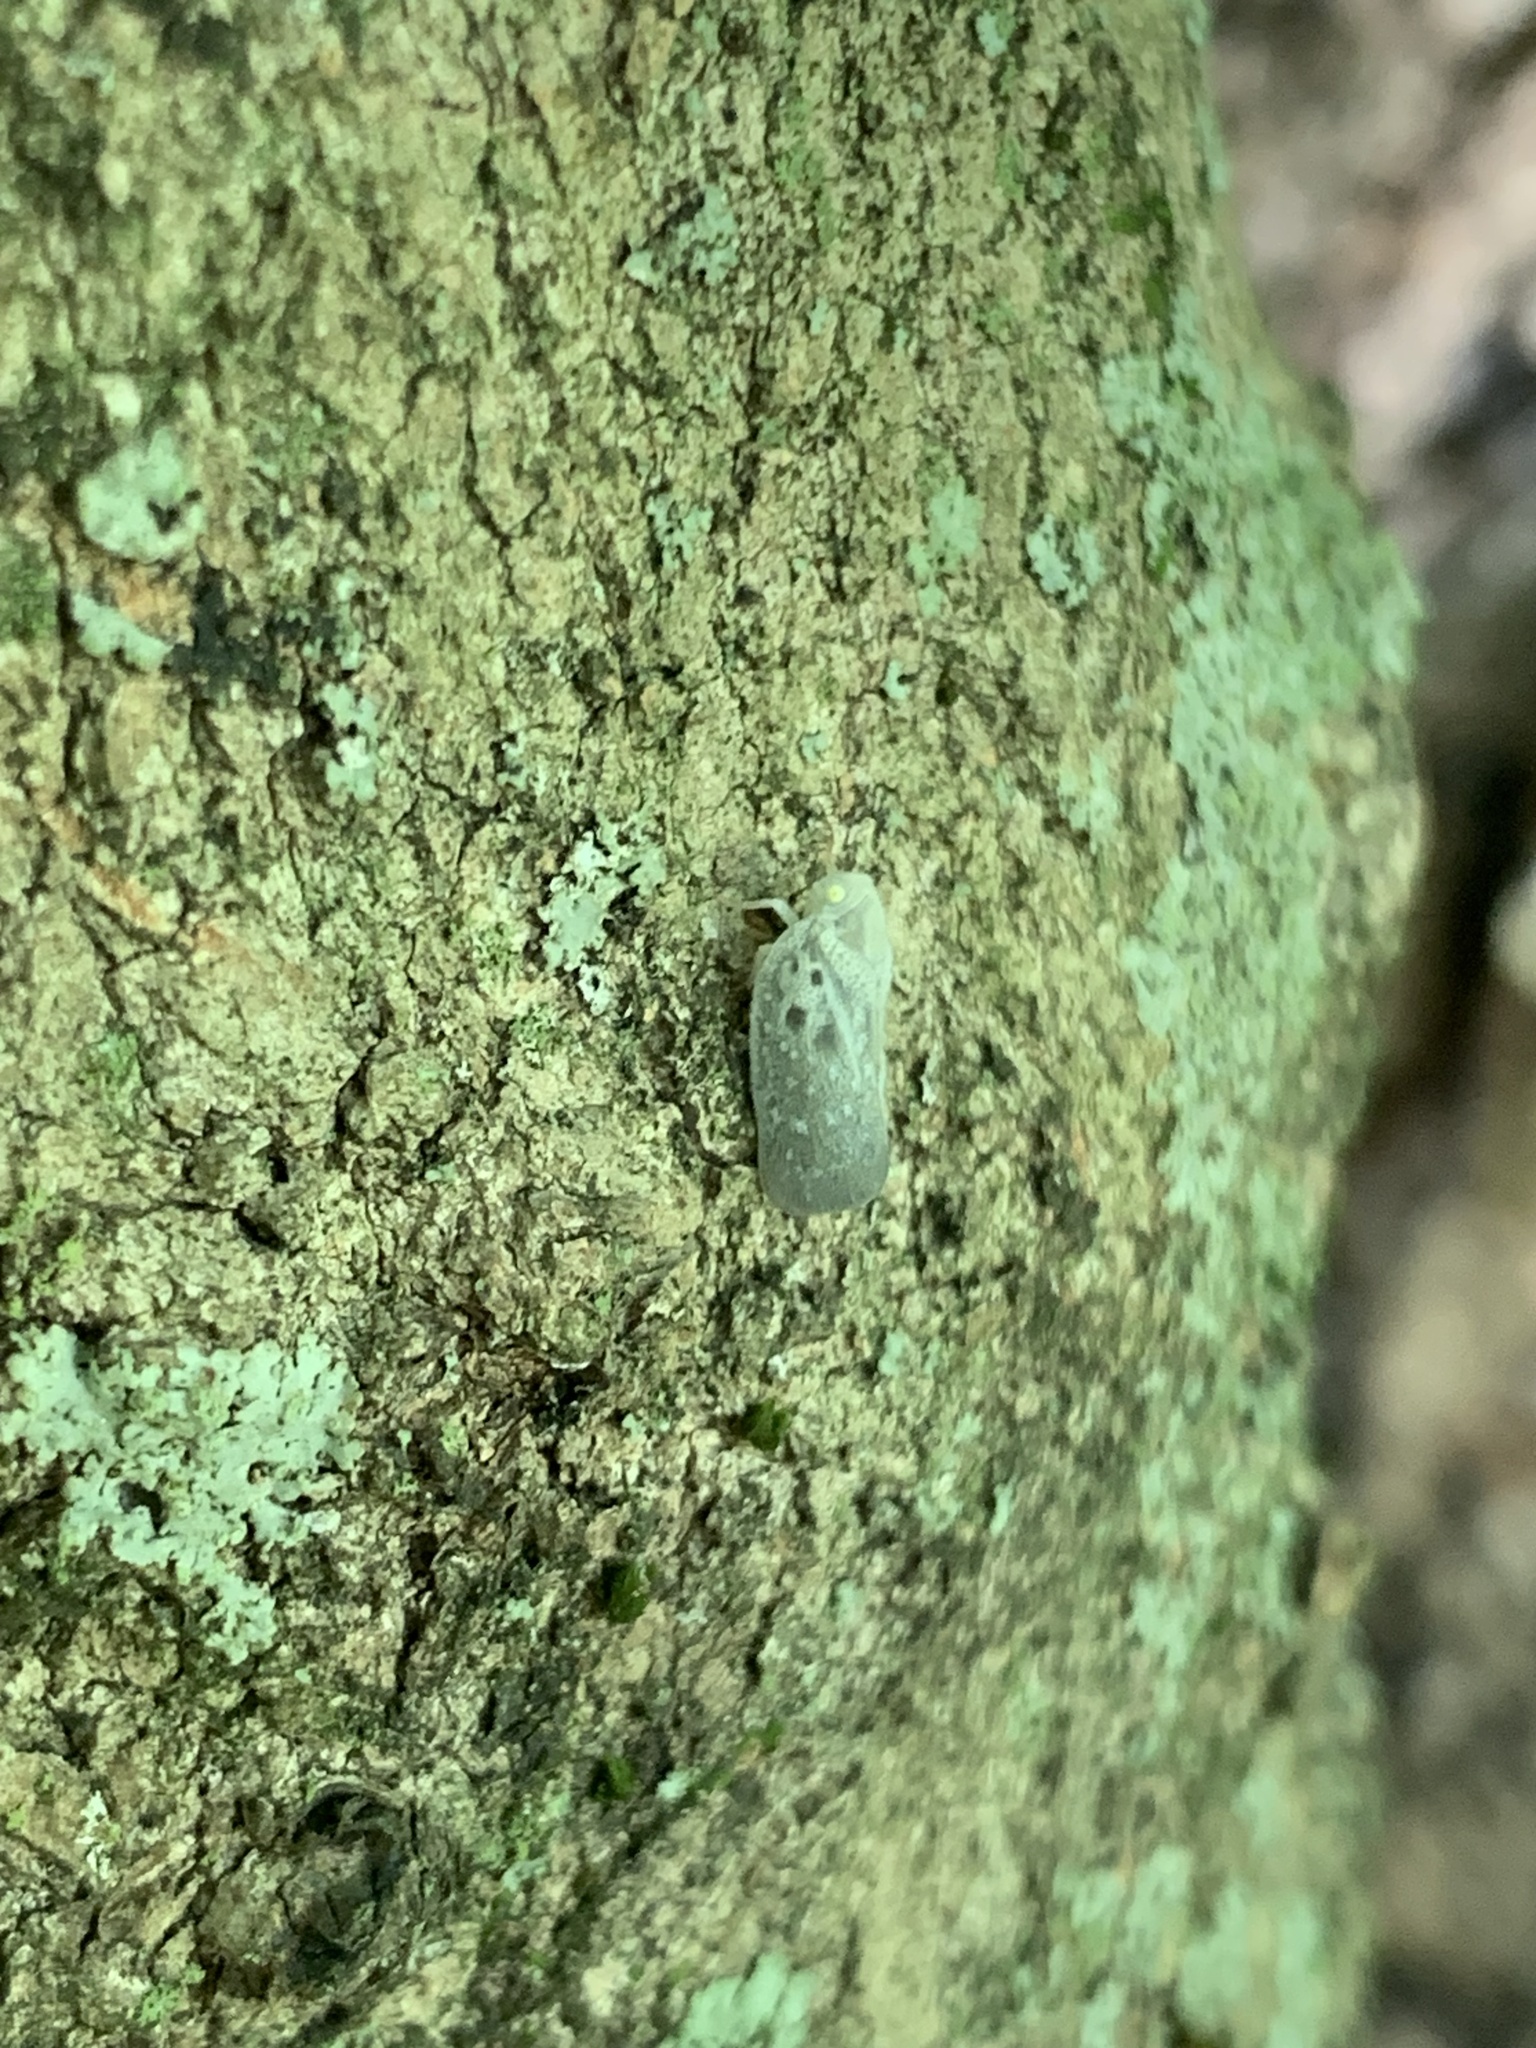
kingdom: Animalia
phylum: Arthropoda
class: Insecta
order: Hemiptera
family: Flatidae
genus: Metcalfa
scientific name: Metcalfa pruinosa
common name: Citrus flatid planthopper
